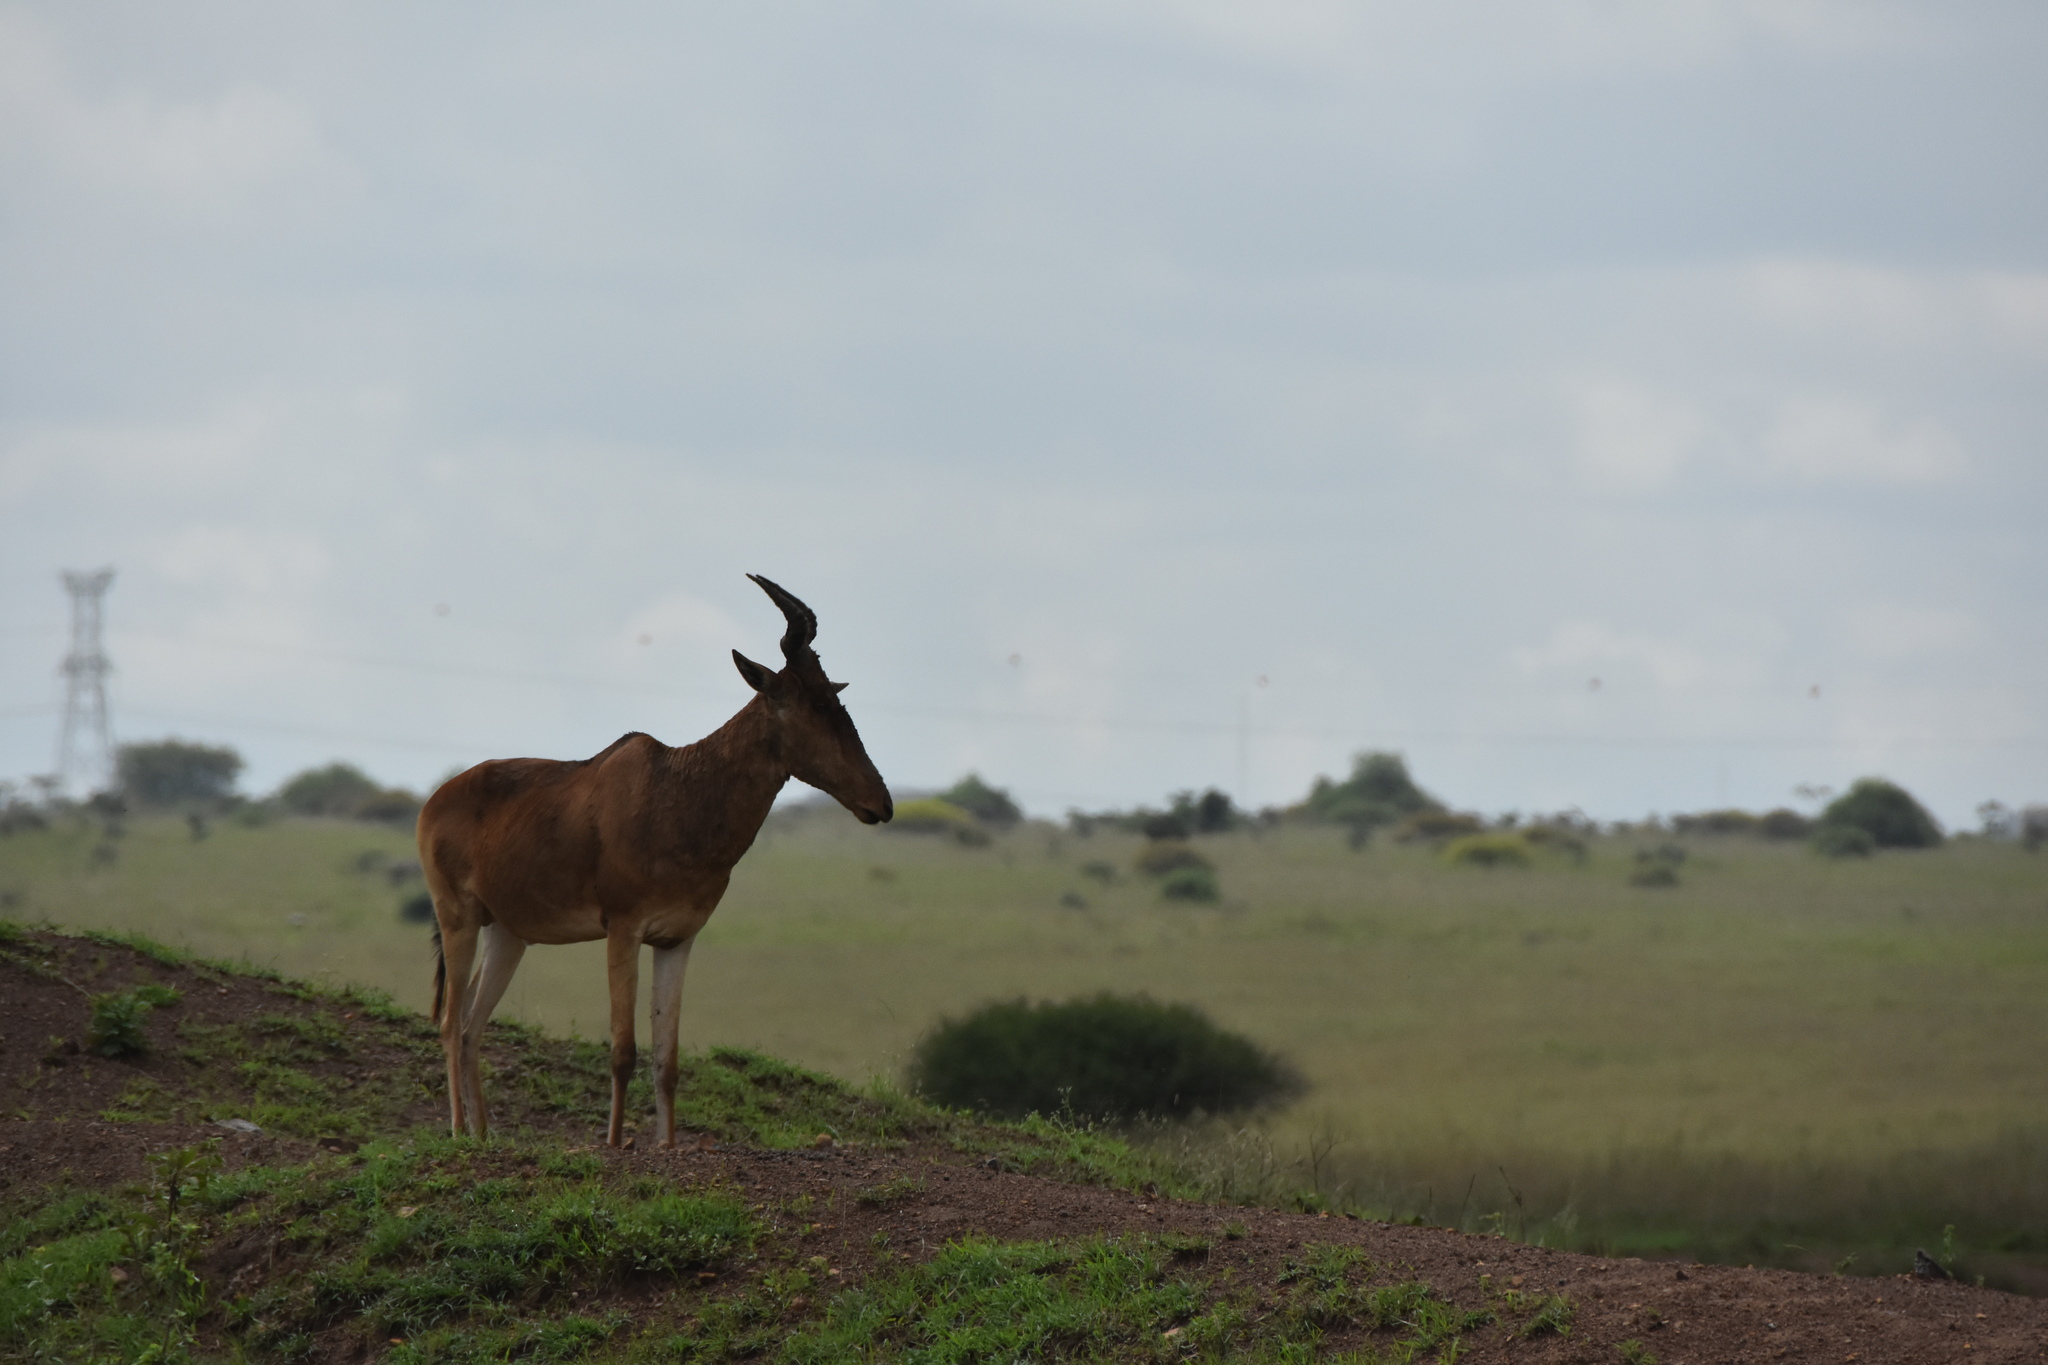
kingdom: Animalia
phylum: Chordata
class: Mammalia
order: Artiodactyla
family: Bovidae
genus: Alcelaphus
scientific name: Alcelaphus buselaphus
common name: Hartebeest
